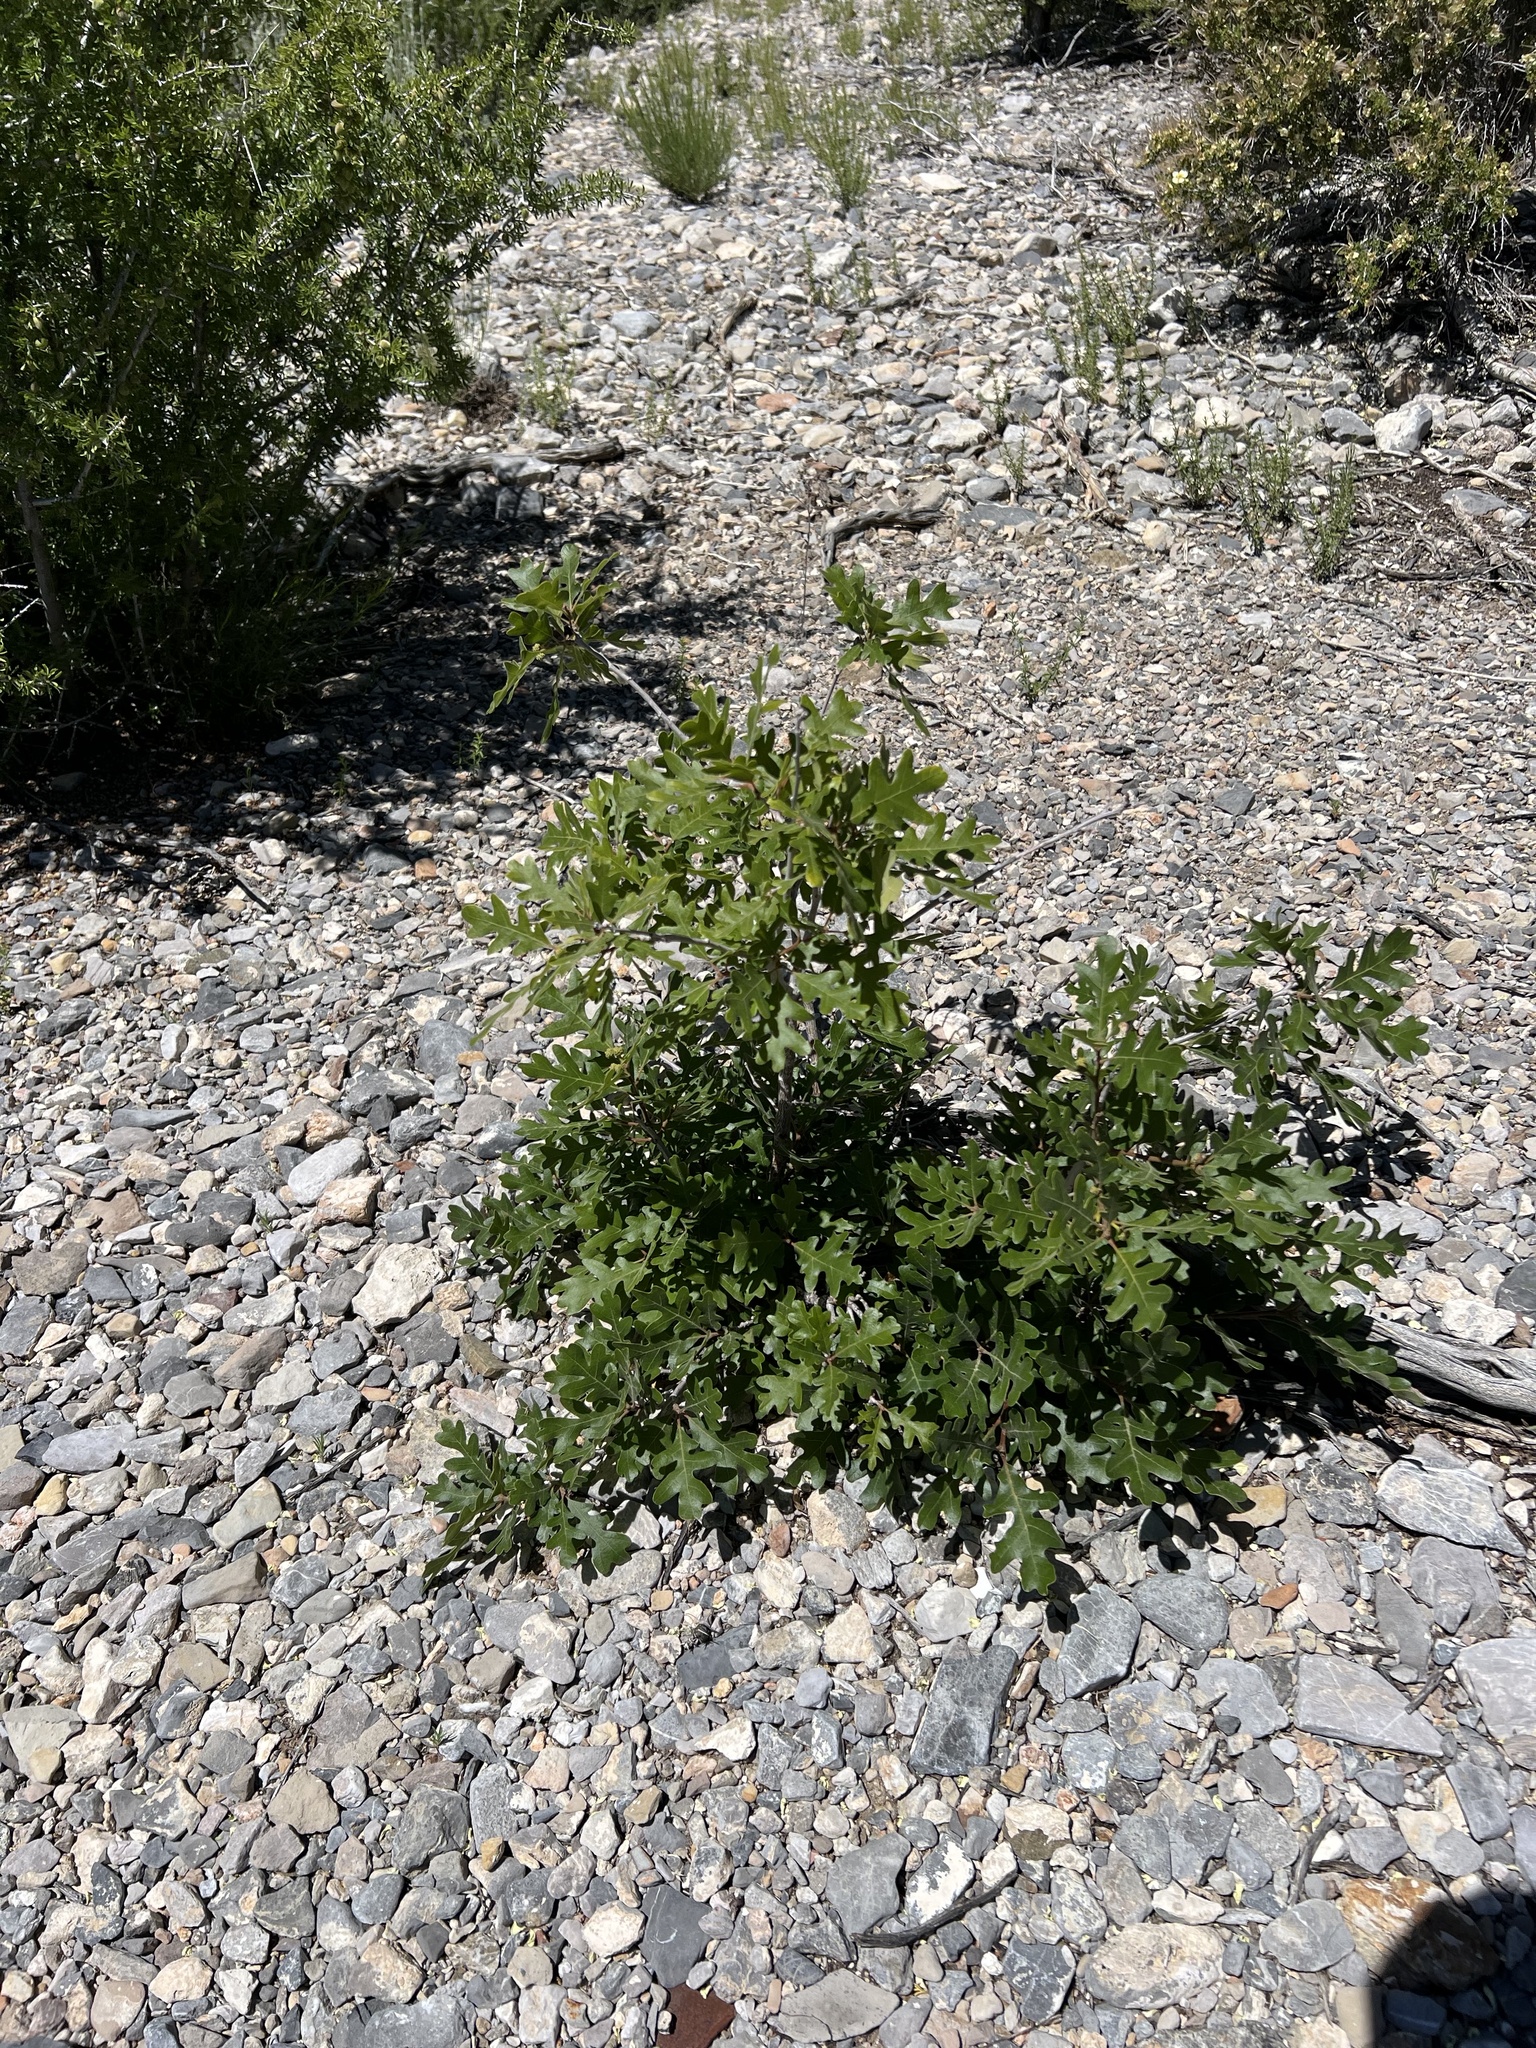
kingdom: Plantae
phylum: Tracheophyta
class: Magnoliopsida
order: Garryales
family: Garryaceae
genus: Garrya
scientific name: Garrya flavescens
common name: Ashy silk-tassel
